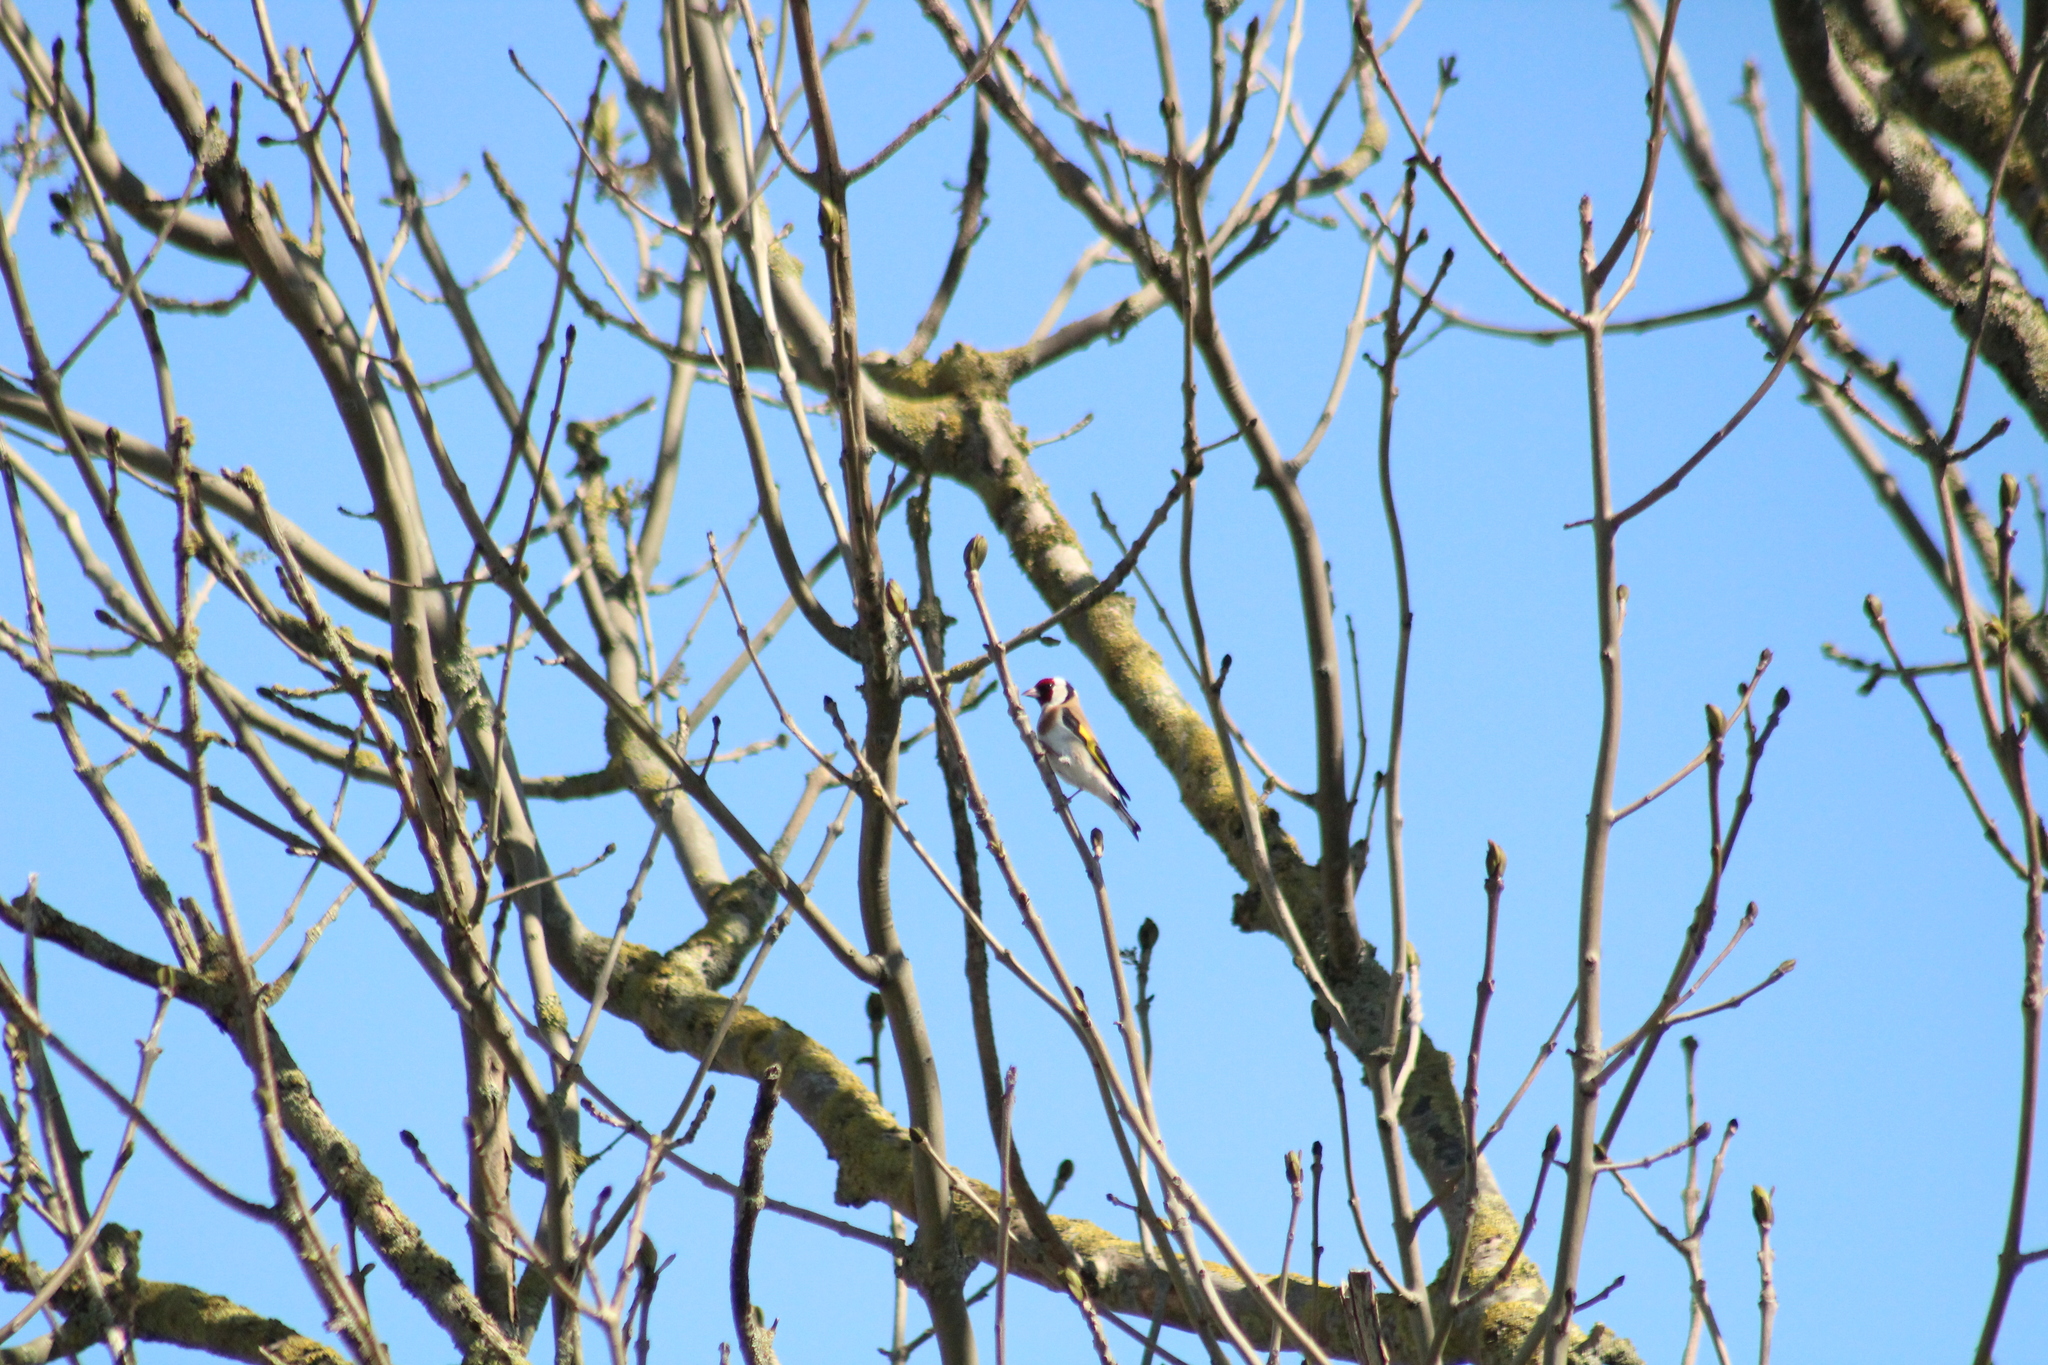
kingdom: Animalia
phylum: Chordata
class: Aves
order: Passeriformes
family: Fringillidae
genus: Carduelis
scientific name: Carduelis carduelis
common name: European goldfinch
